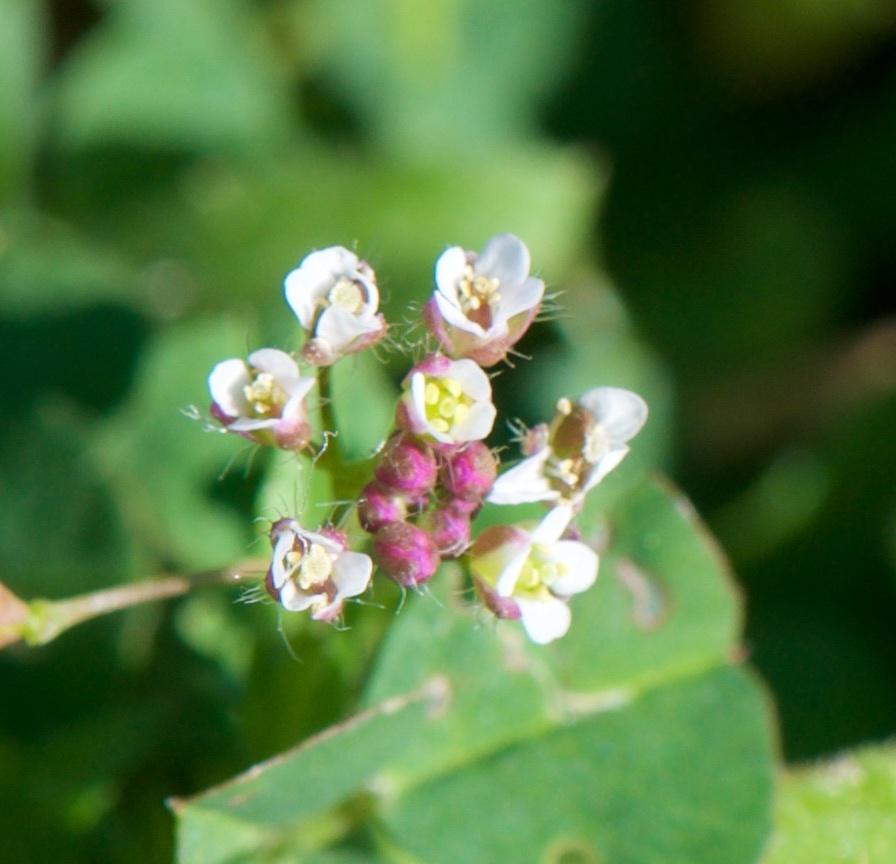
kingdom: Plantae
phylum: Tracheophyta
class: Magnoliopsida
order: Brassicales
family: Brassicaceae
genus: Capsella
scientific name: Capsella bursa-pastoris
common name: Shepherd's purse
